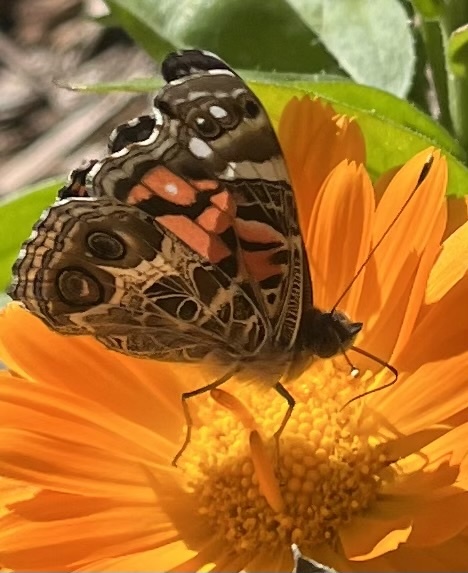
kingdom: Animalia
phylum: Arthropoda
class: Insecta
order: Lepidoptera
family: Nymphalidae
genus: Vanessa
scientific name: Vanessa virginiensis
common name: American lady
